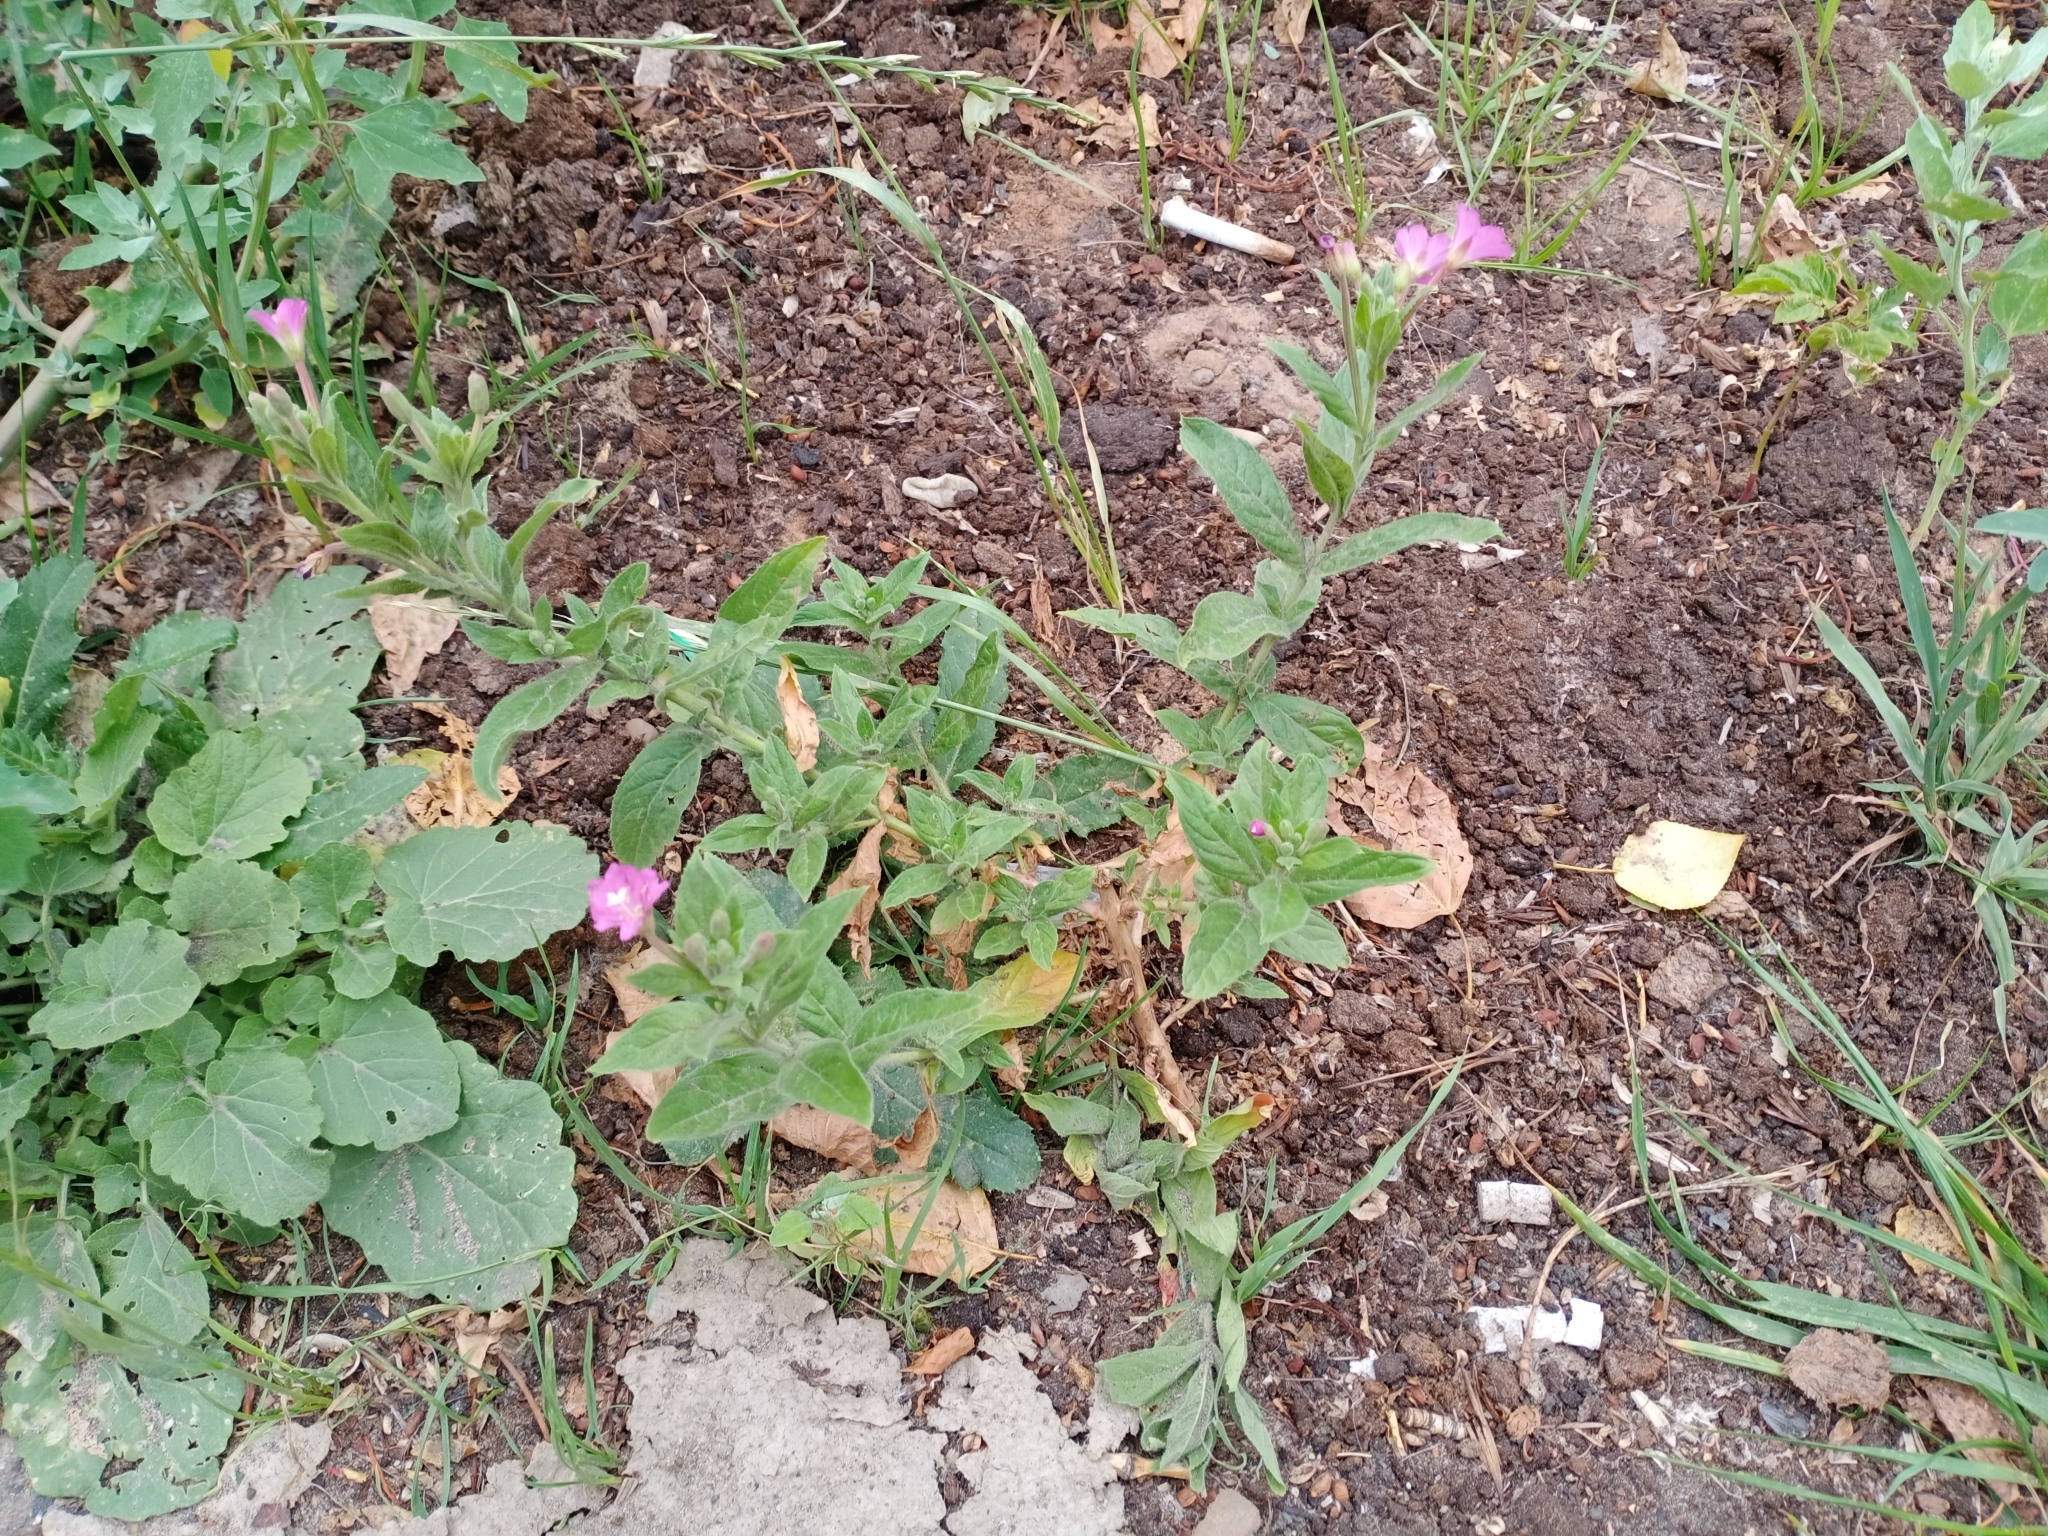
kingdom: Plantae
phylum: Tracheophyta
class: Magnoliopsida
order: Myrtales
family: Onagraceae
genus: Epilobium
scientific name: Epilobium hirsutum
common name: Great willowherb
